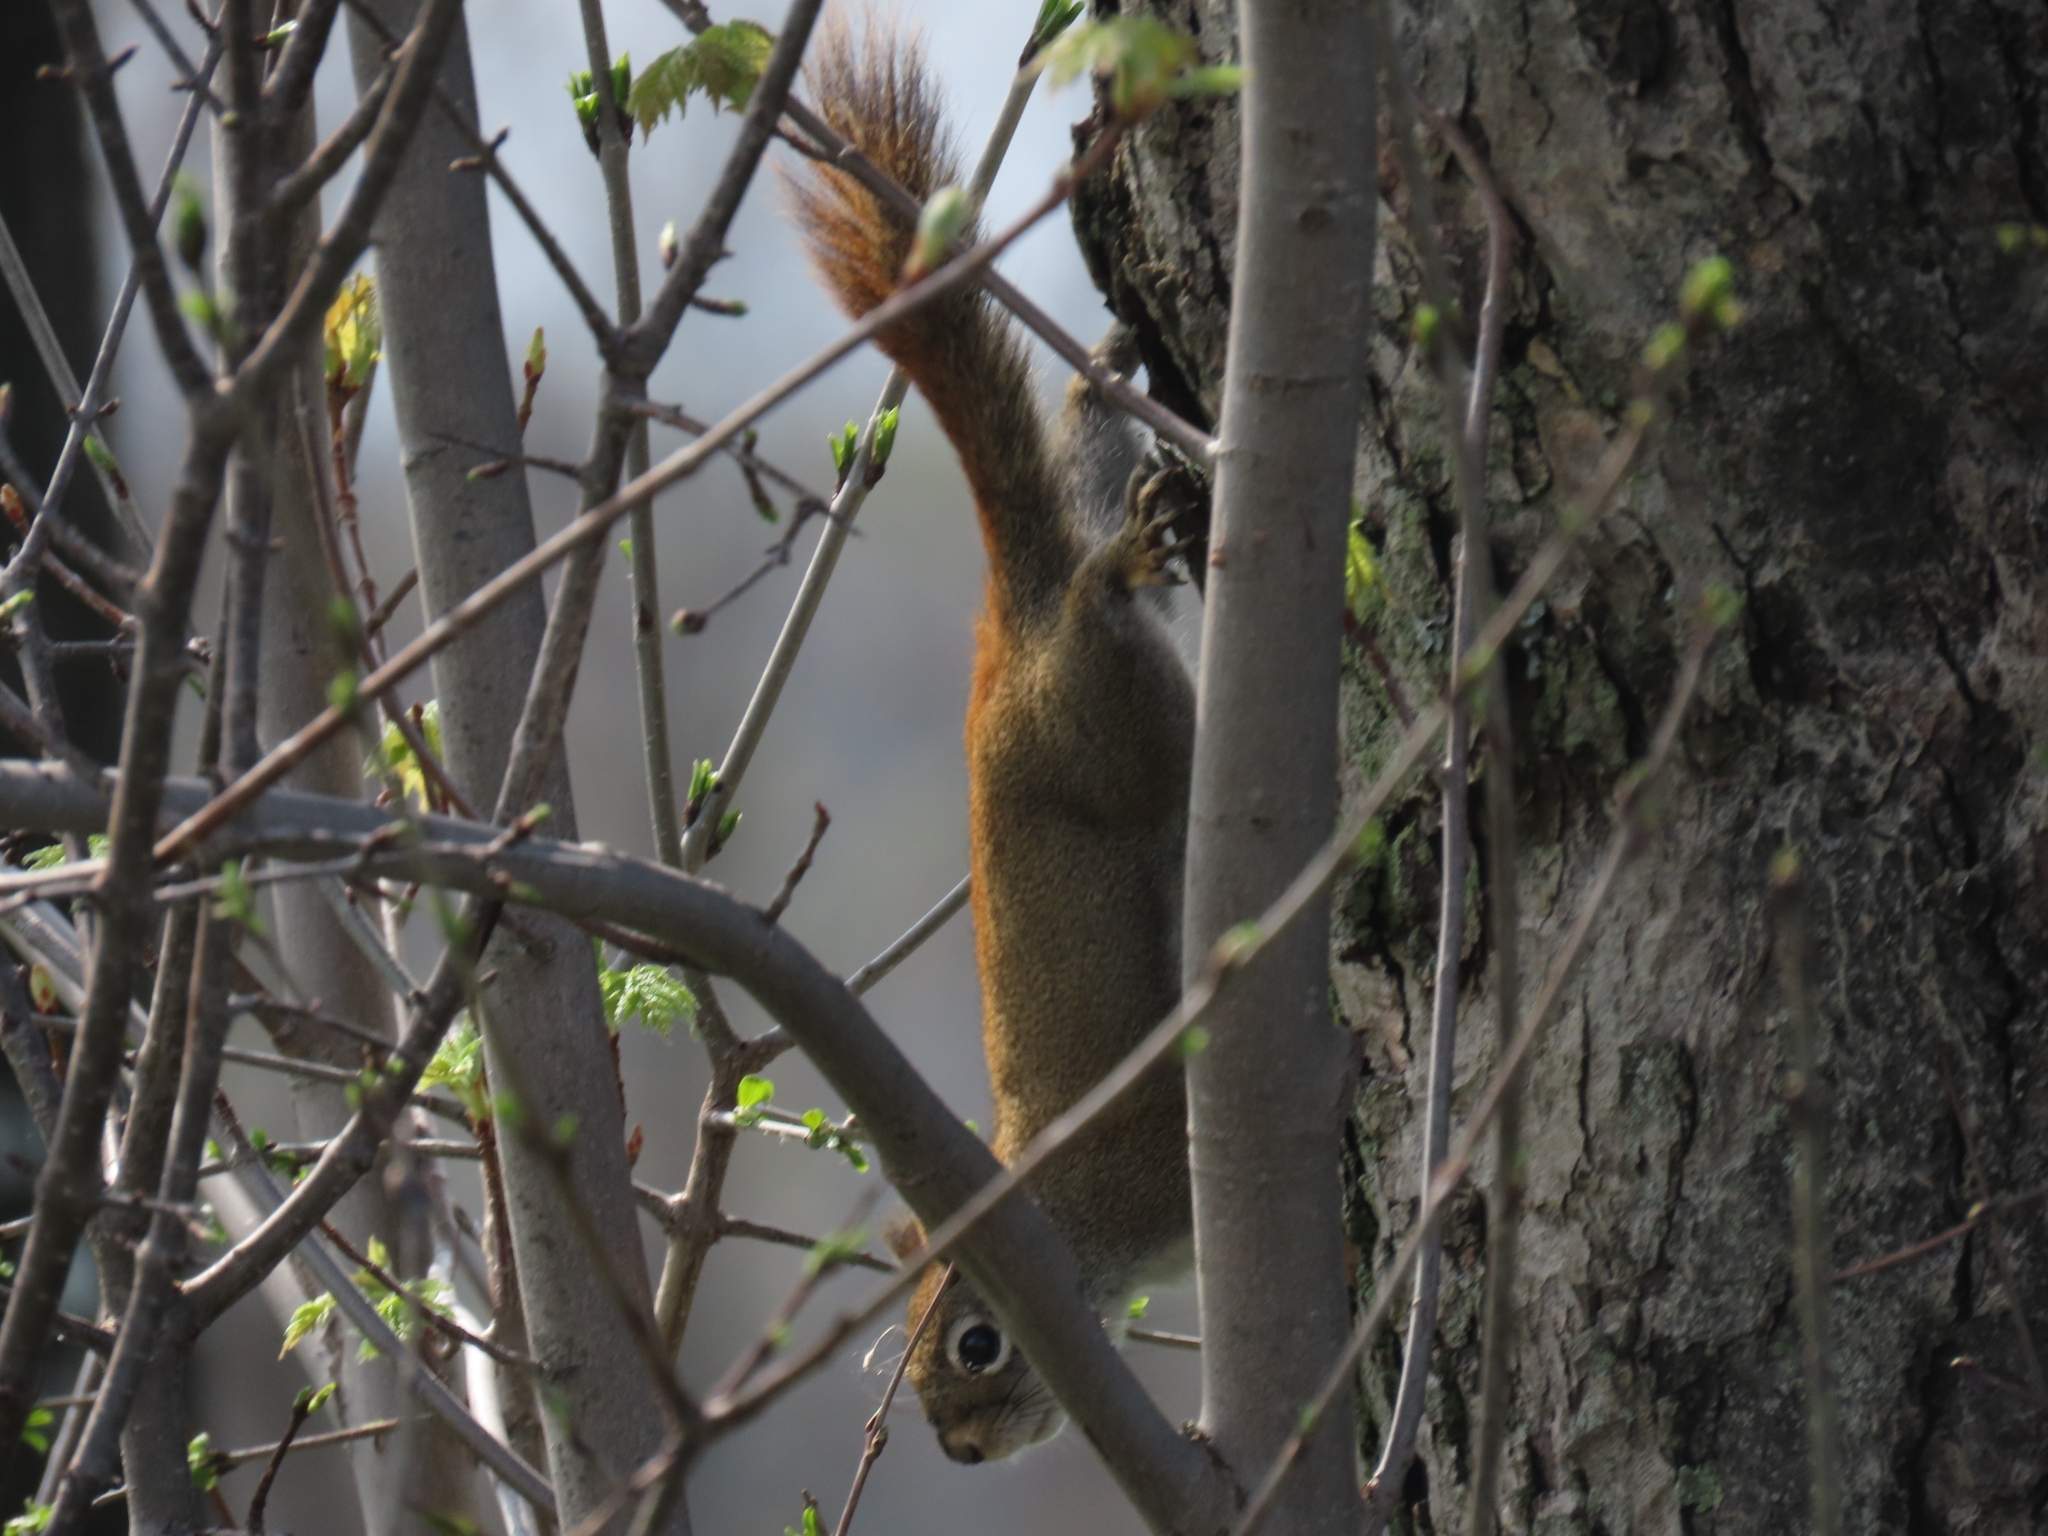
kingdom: Animalia
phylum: Chordata
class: Mammalia
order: Rodentia
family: Sciuridae
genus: Tamiasciurus
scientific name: Tamiasciurus hudsonicus
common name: Red squirrel
